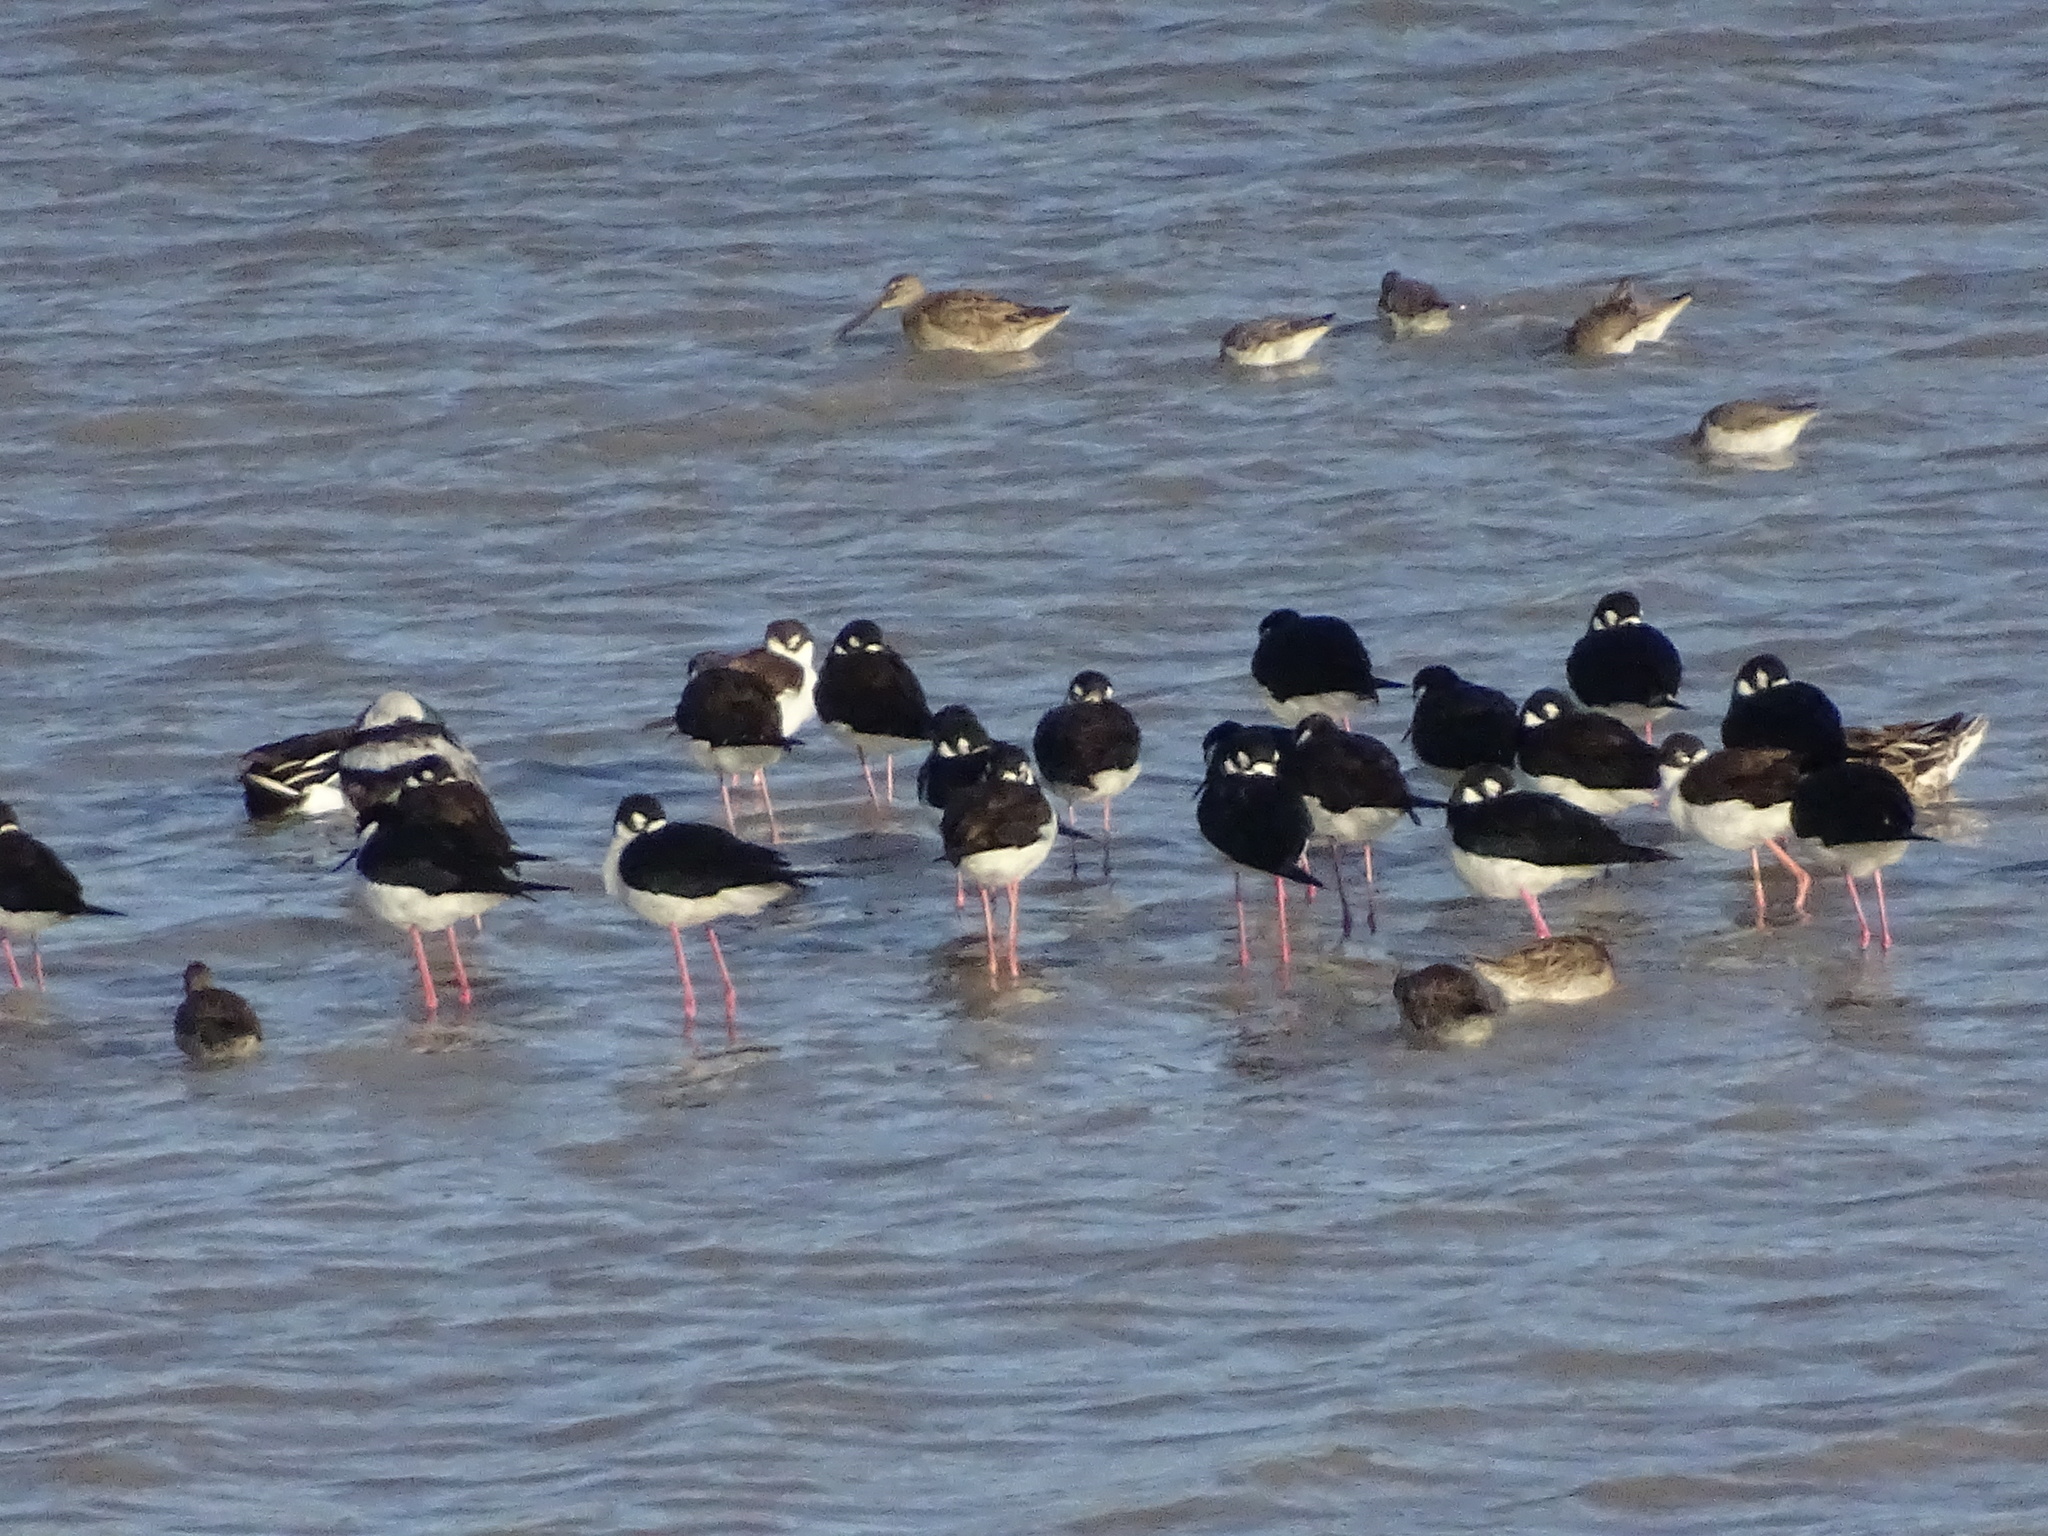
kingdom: Animalia
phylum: Chordata
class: Aves
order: Charadriiformes
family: Recurvirostridae
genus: Himantopus
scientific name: Himantopus mexicanus
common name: Black-necked stilt
